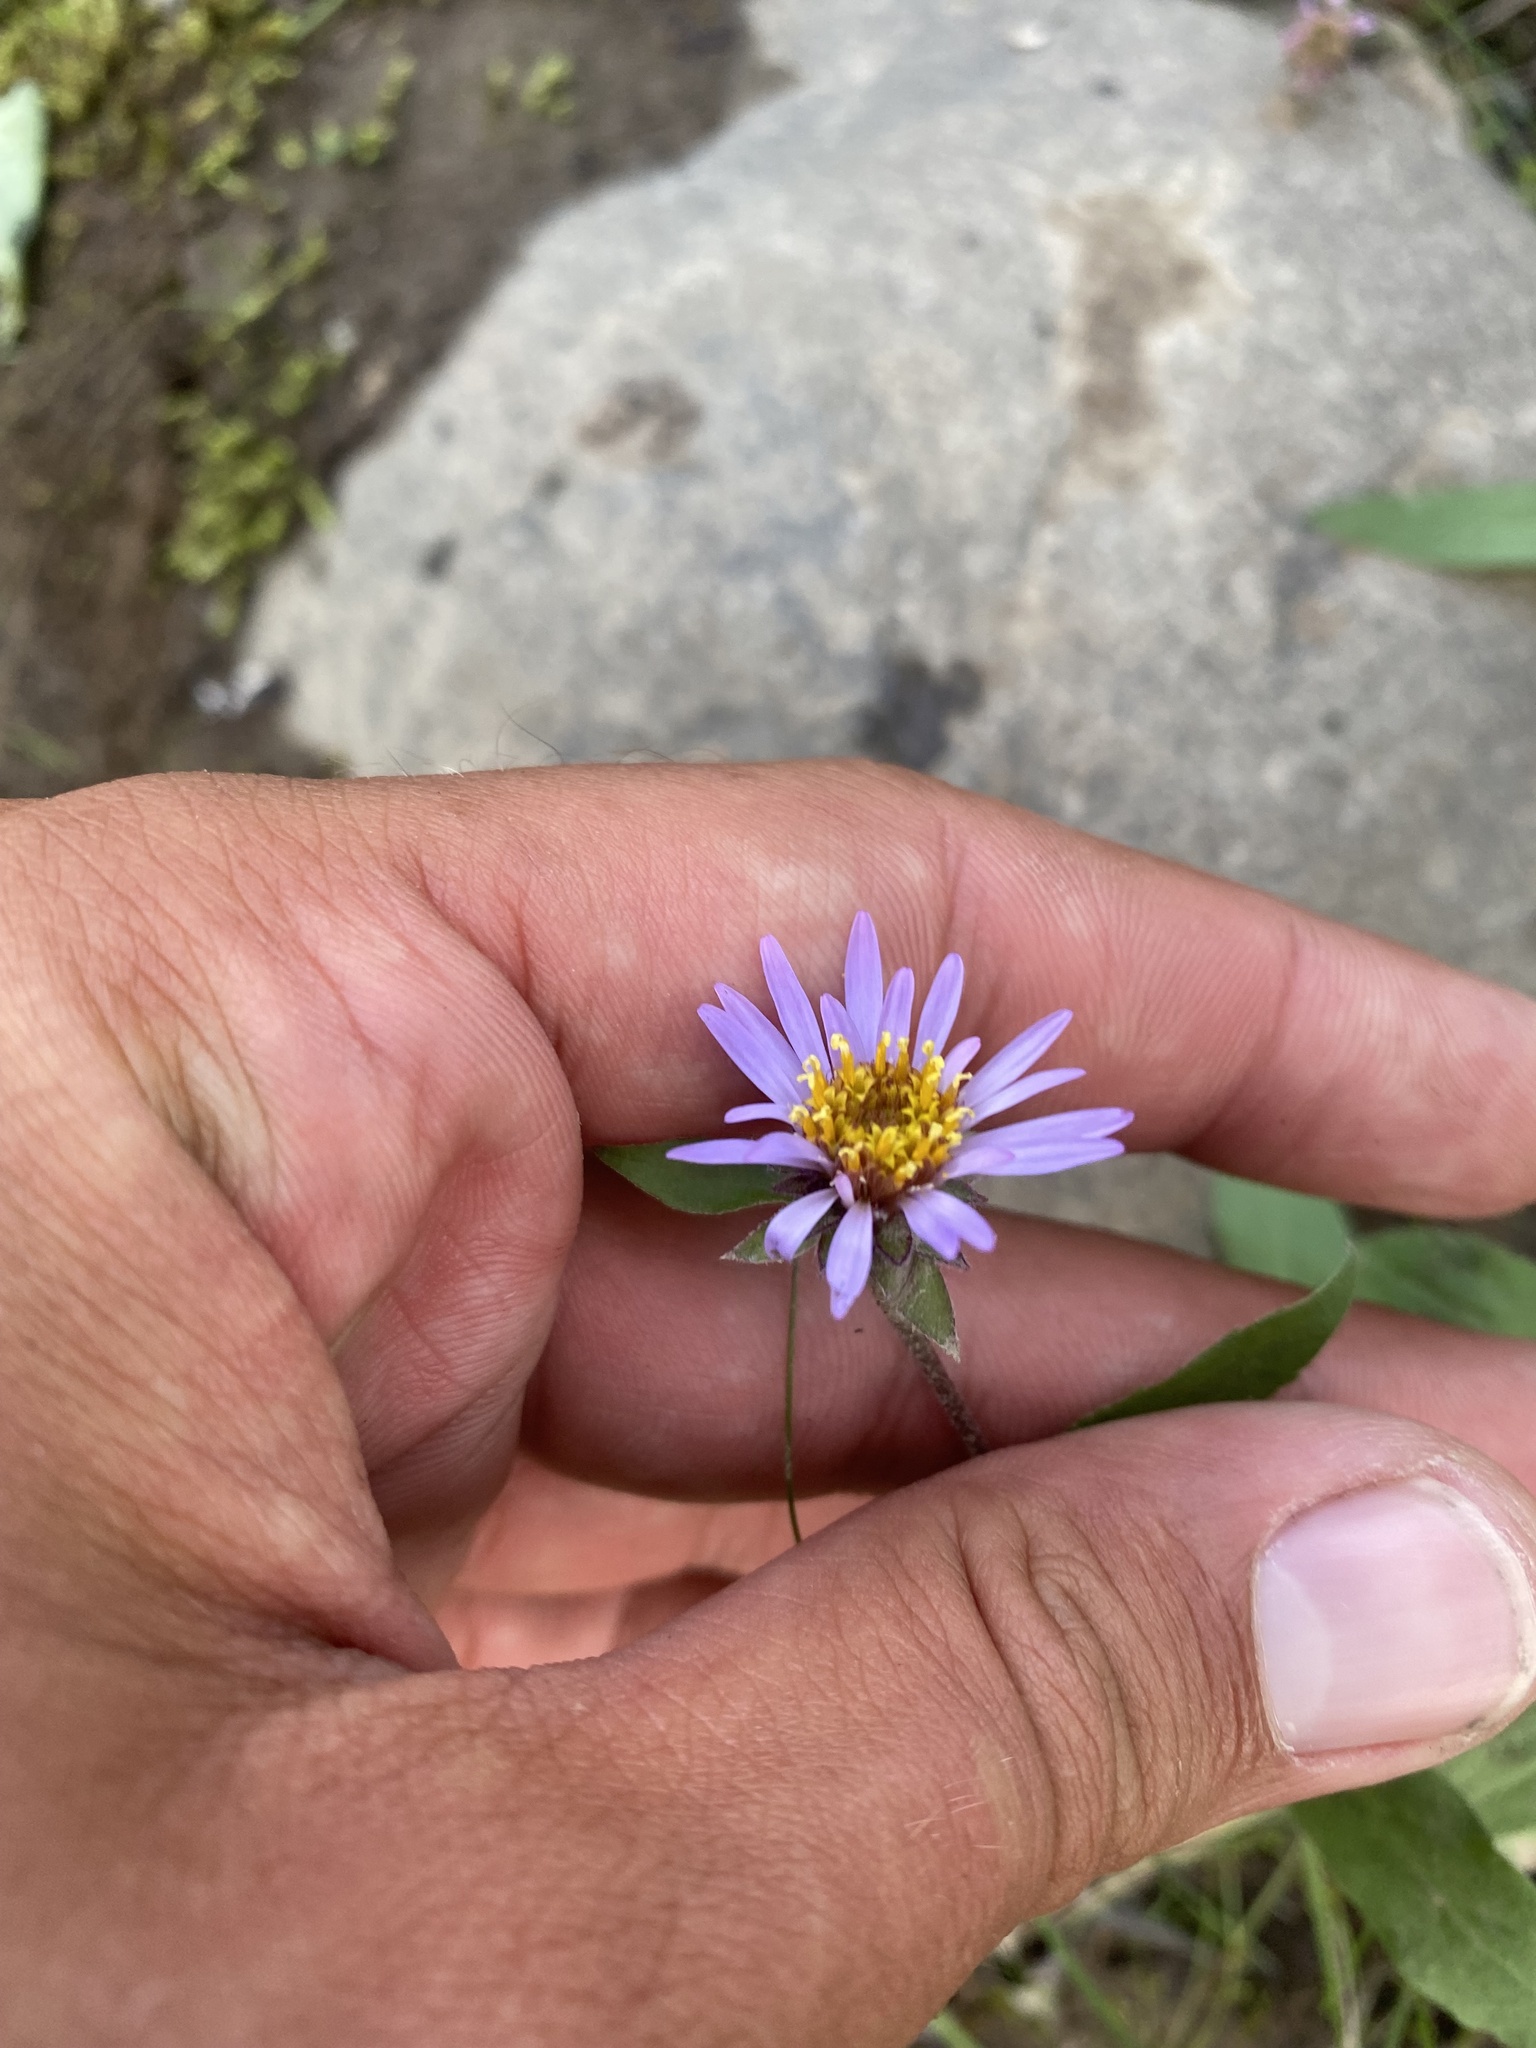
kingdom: Plantae
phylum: Tracheophyta
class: Magnoliopsida
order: Asterales
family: Asteraceae
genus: Eurybia
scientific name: Eurybia sibirica
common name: Arctic aster
